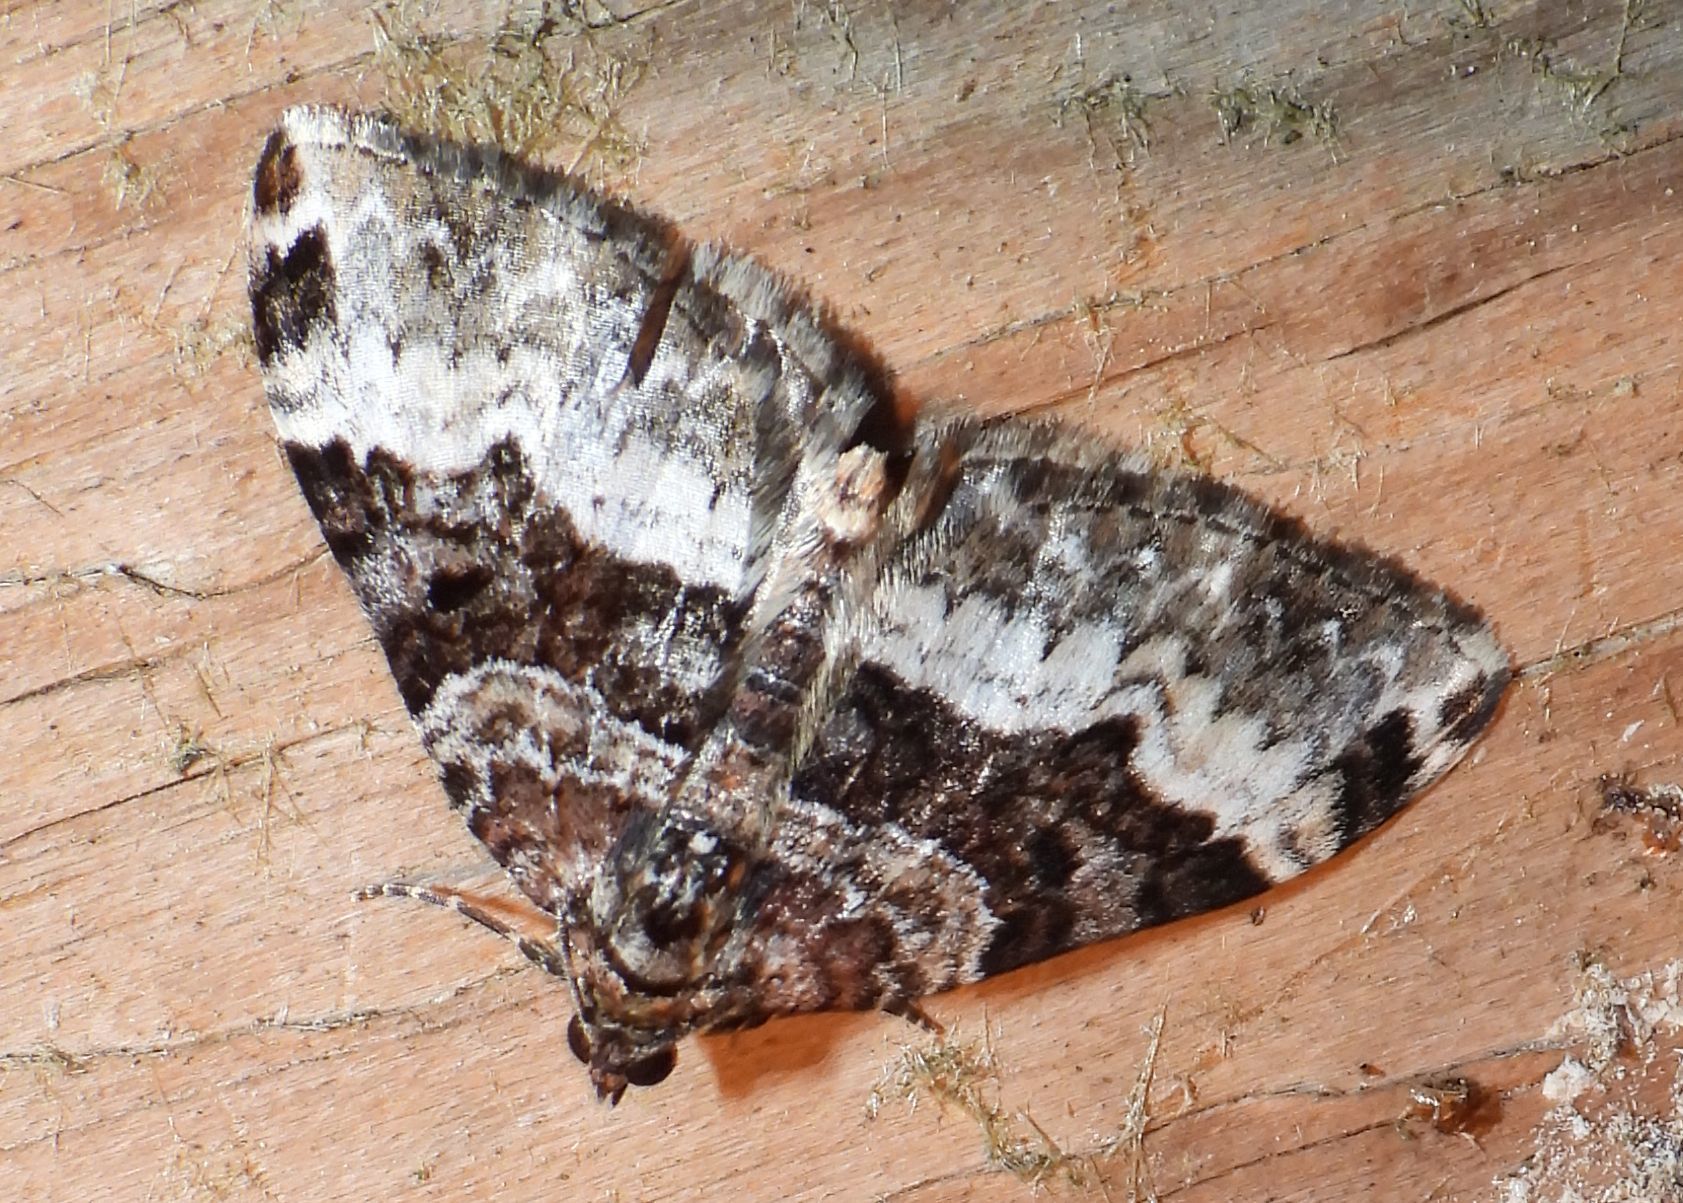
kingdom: Animalia
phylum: Arthropoda
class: Insecta
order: Lepidoptera
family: Geometridae
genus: Euphyia
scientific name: Euphyia intermediata
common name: Sharp-angled carpet
